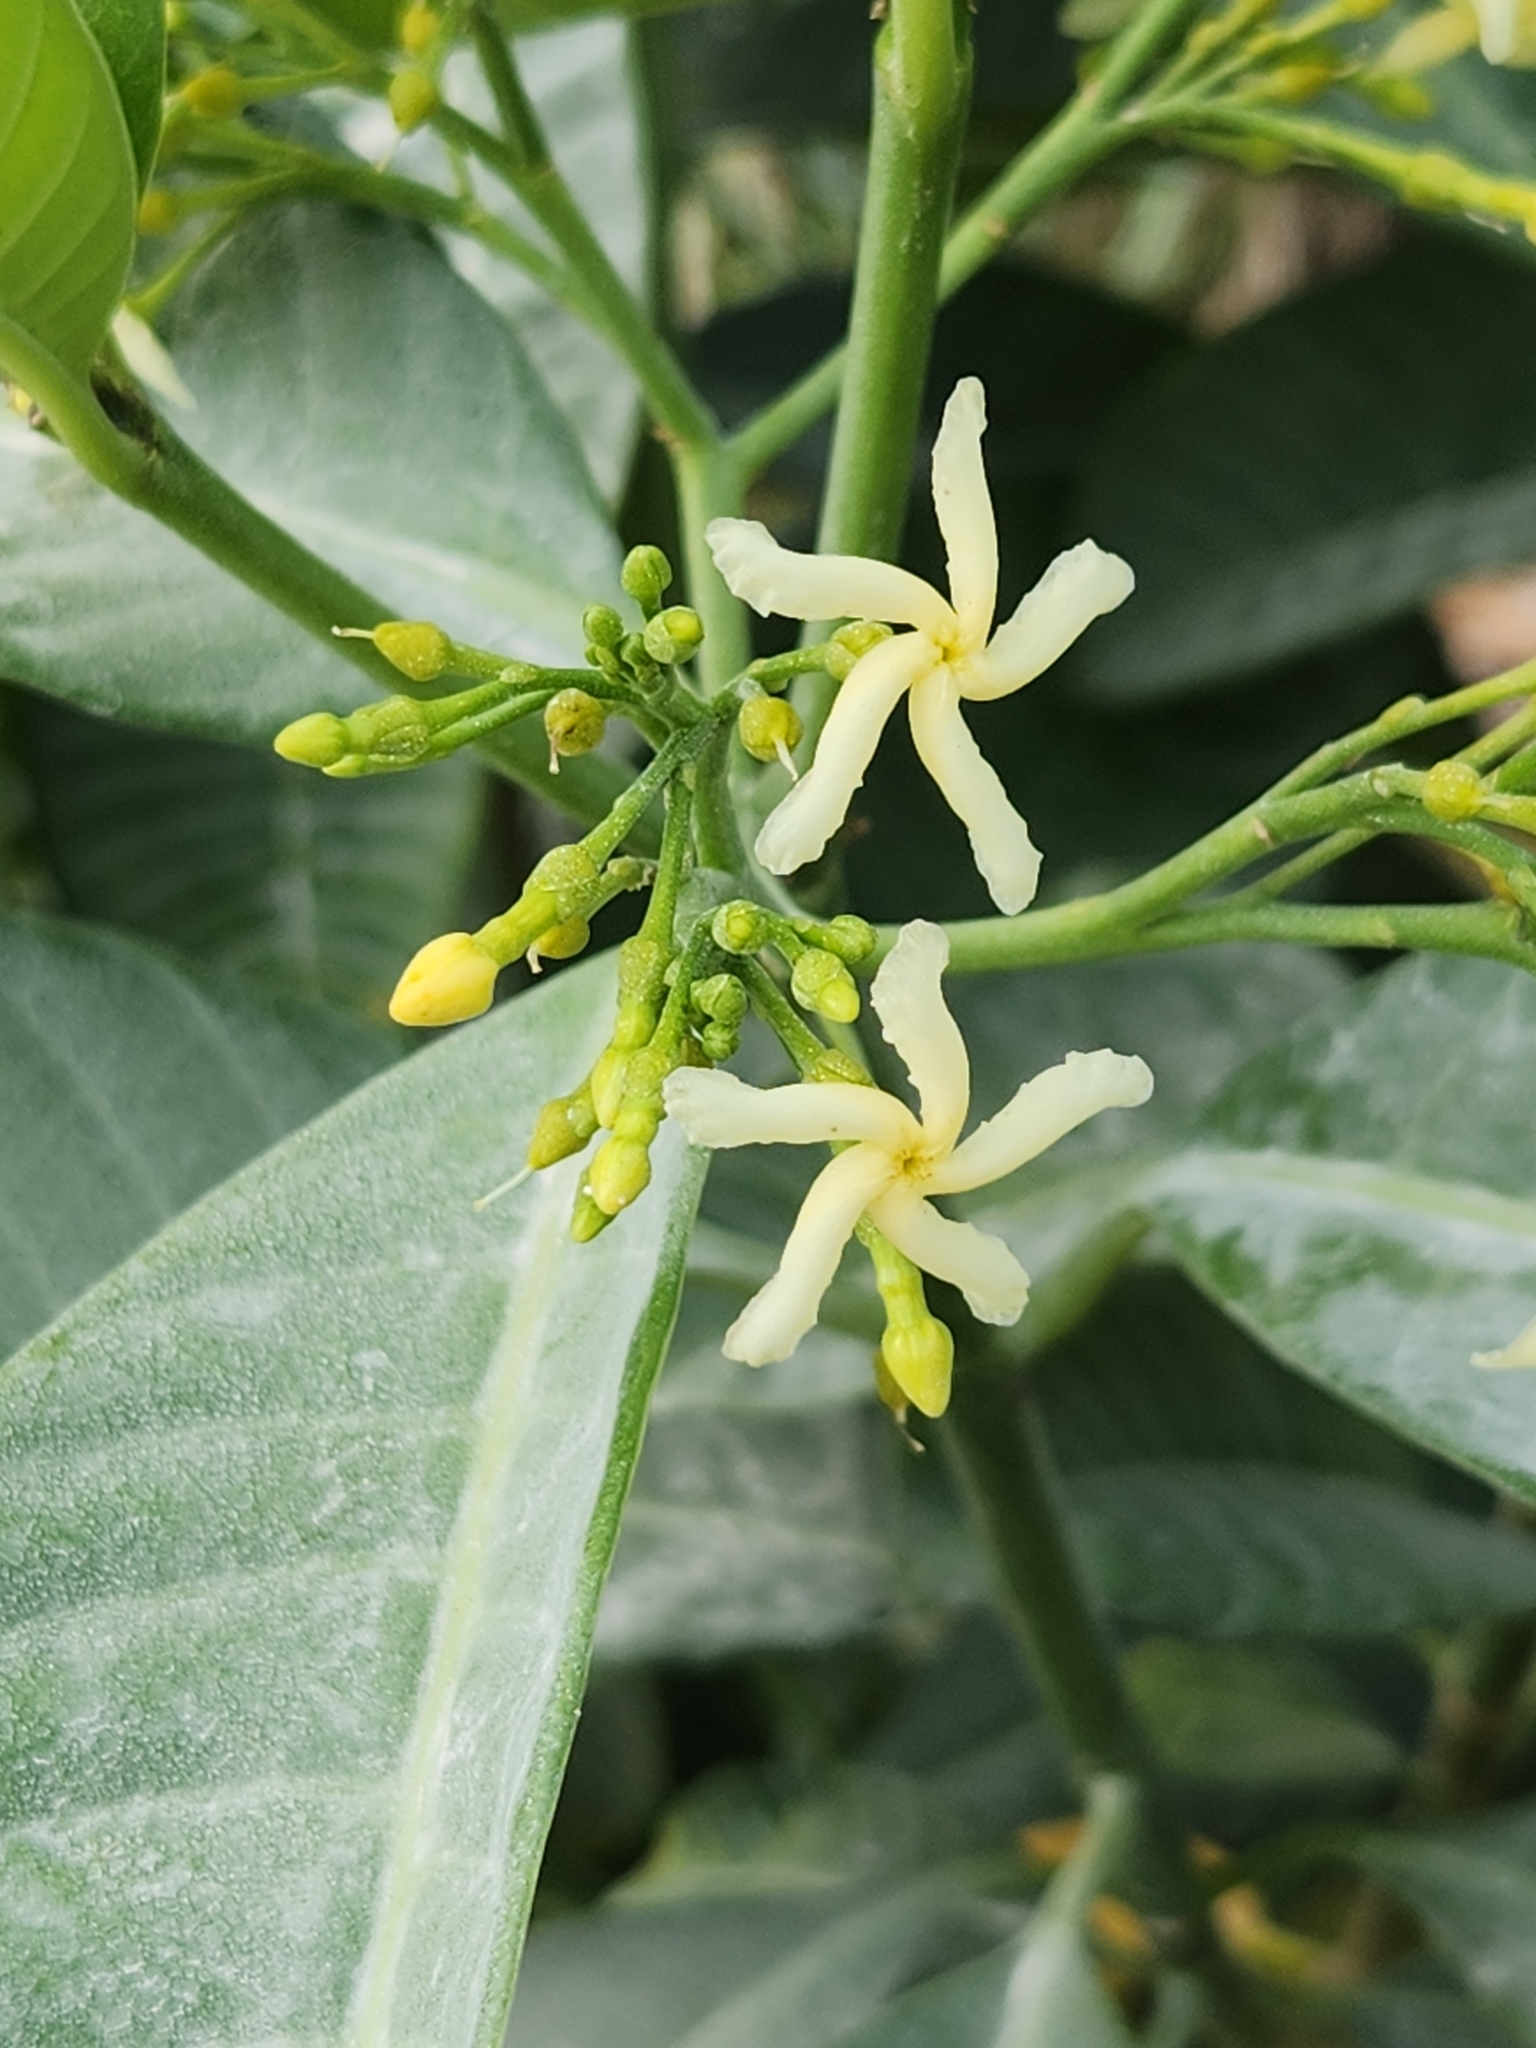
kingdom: Plantae
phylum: Tracheophyta
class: Magnoliopsida
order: Gentianales
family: Apocynaceae
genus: Tabernaemontana
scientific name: Tabernaemontana alba
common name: White milkwood
